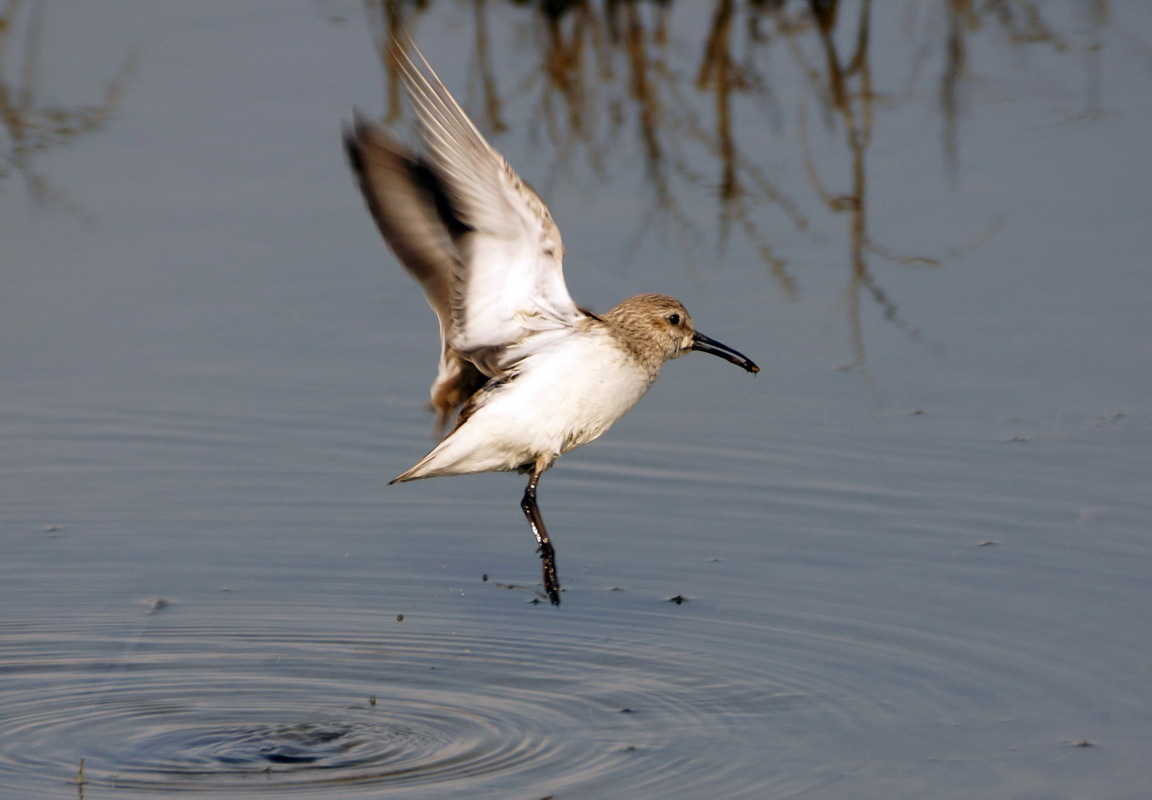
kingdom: Animalia
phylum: Chordata
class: Aves
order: Charadriiformes
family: Scolopacidae
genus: Calidris
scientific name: Calidris alpina
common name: Dunlin
